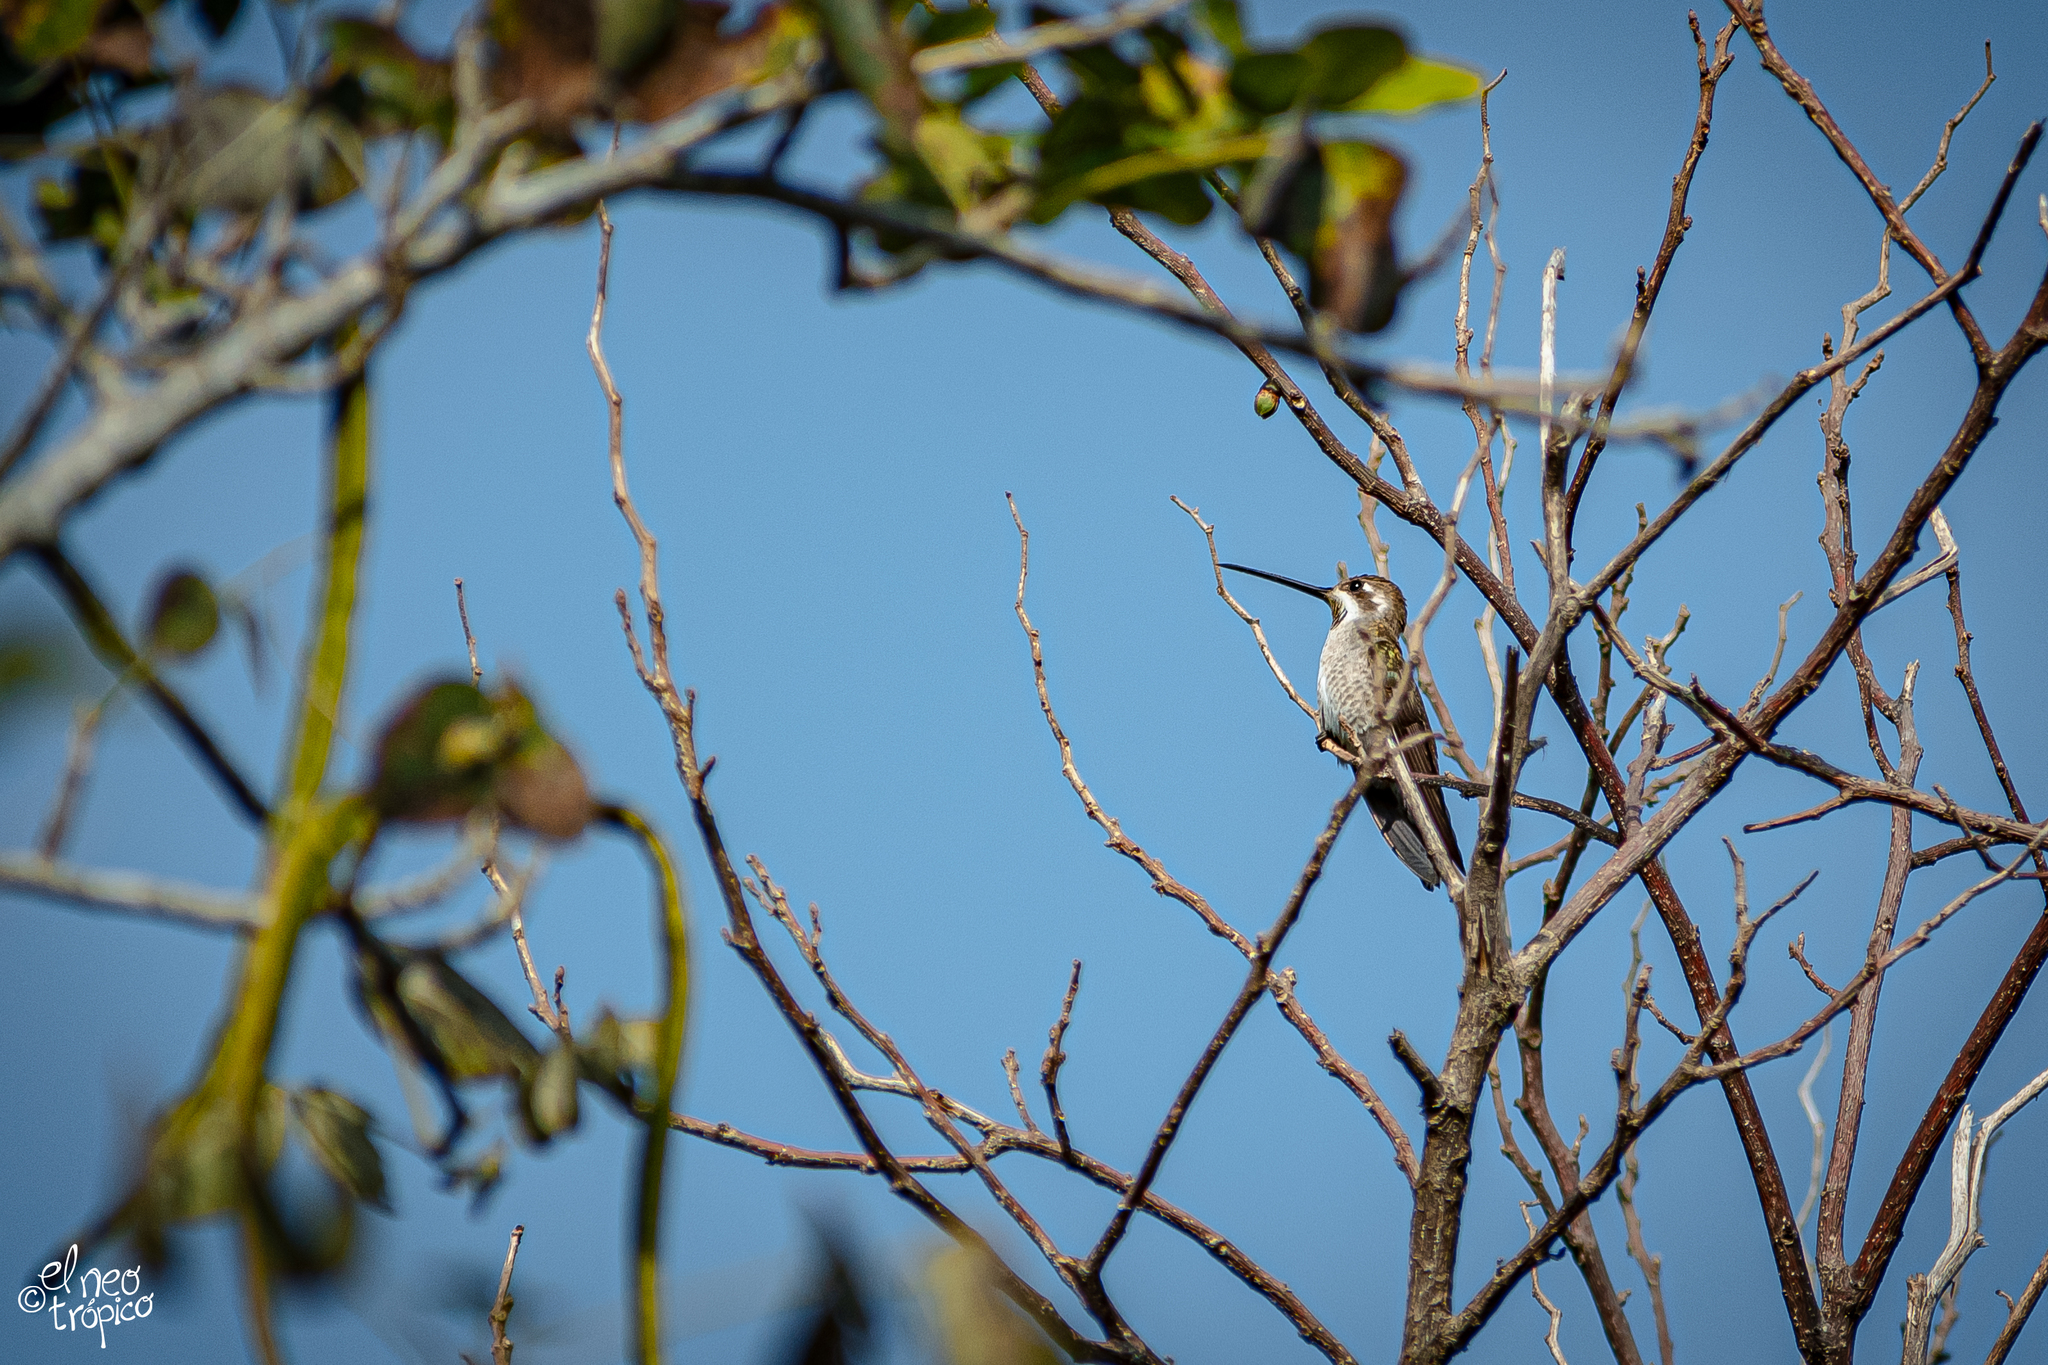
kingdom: Animalia
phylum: Chordata
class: Aves
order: Apodiformes
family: Trochilidae
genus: Heliomaster
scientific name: Heliomaster constantii
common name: Plain-capped starthroat
